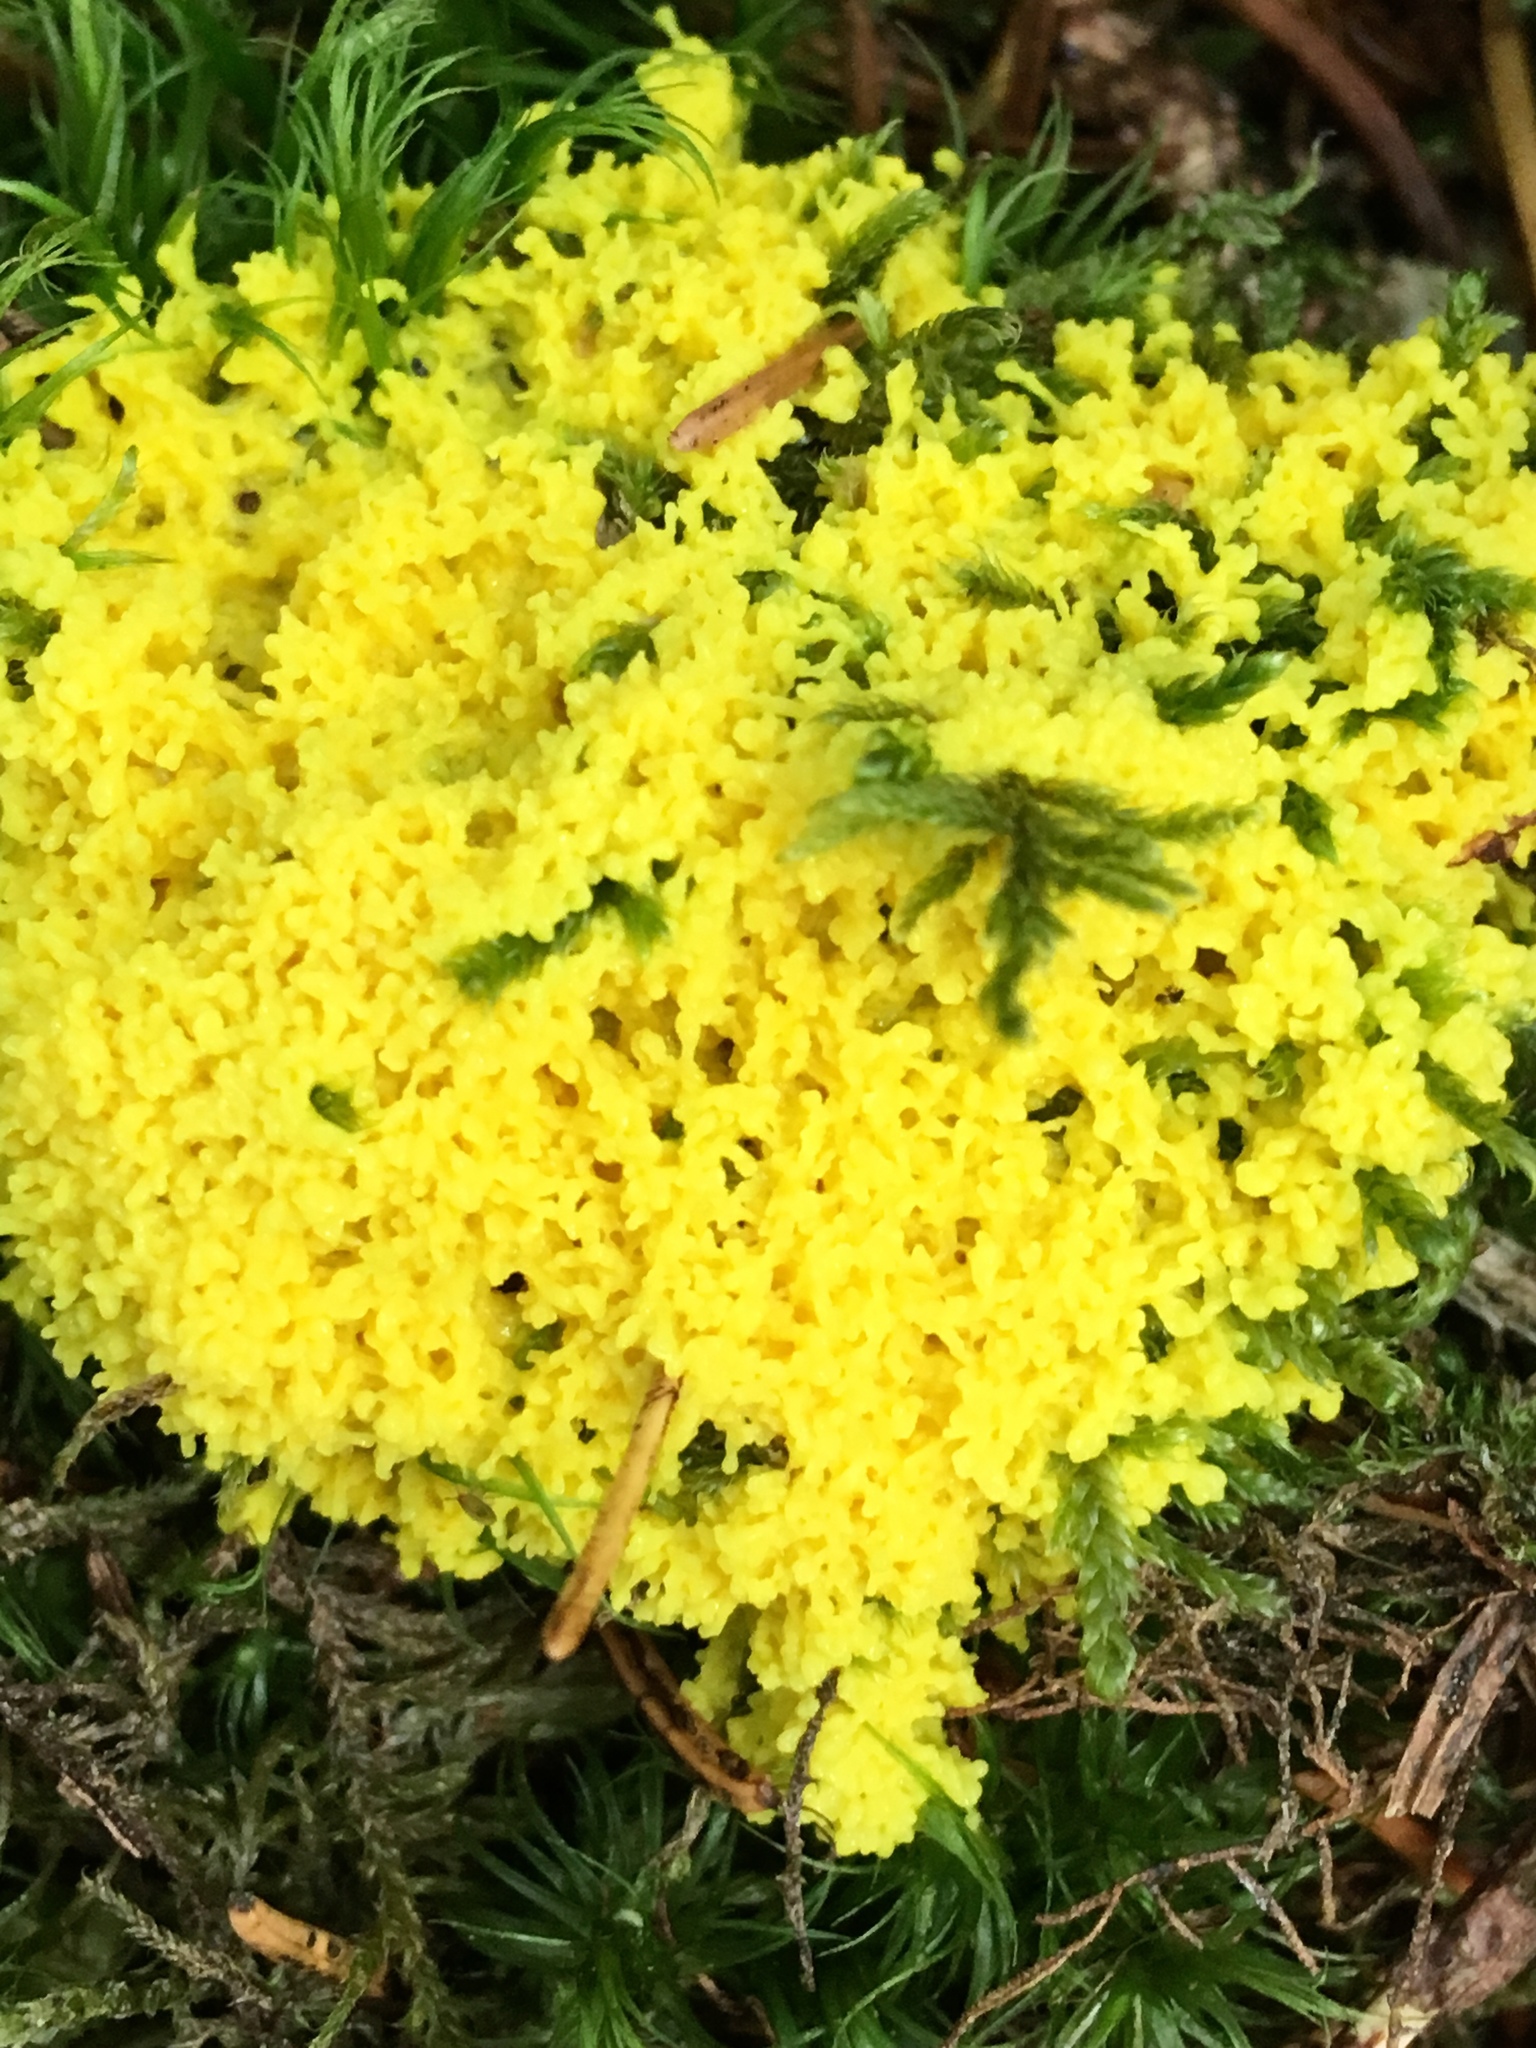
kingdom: Protozoa
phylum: Mycetozoa
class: Myxomycetes
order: Physarales
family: Physaraceae
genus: Fuligo
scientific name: Fuligo septica
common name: Dog vomit slime mold
